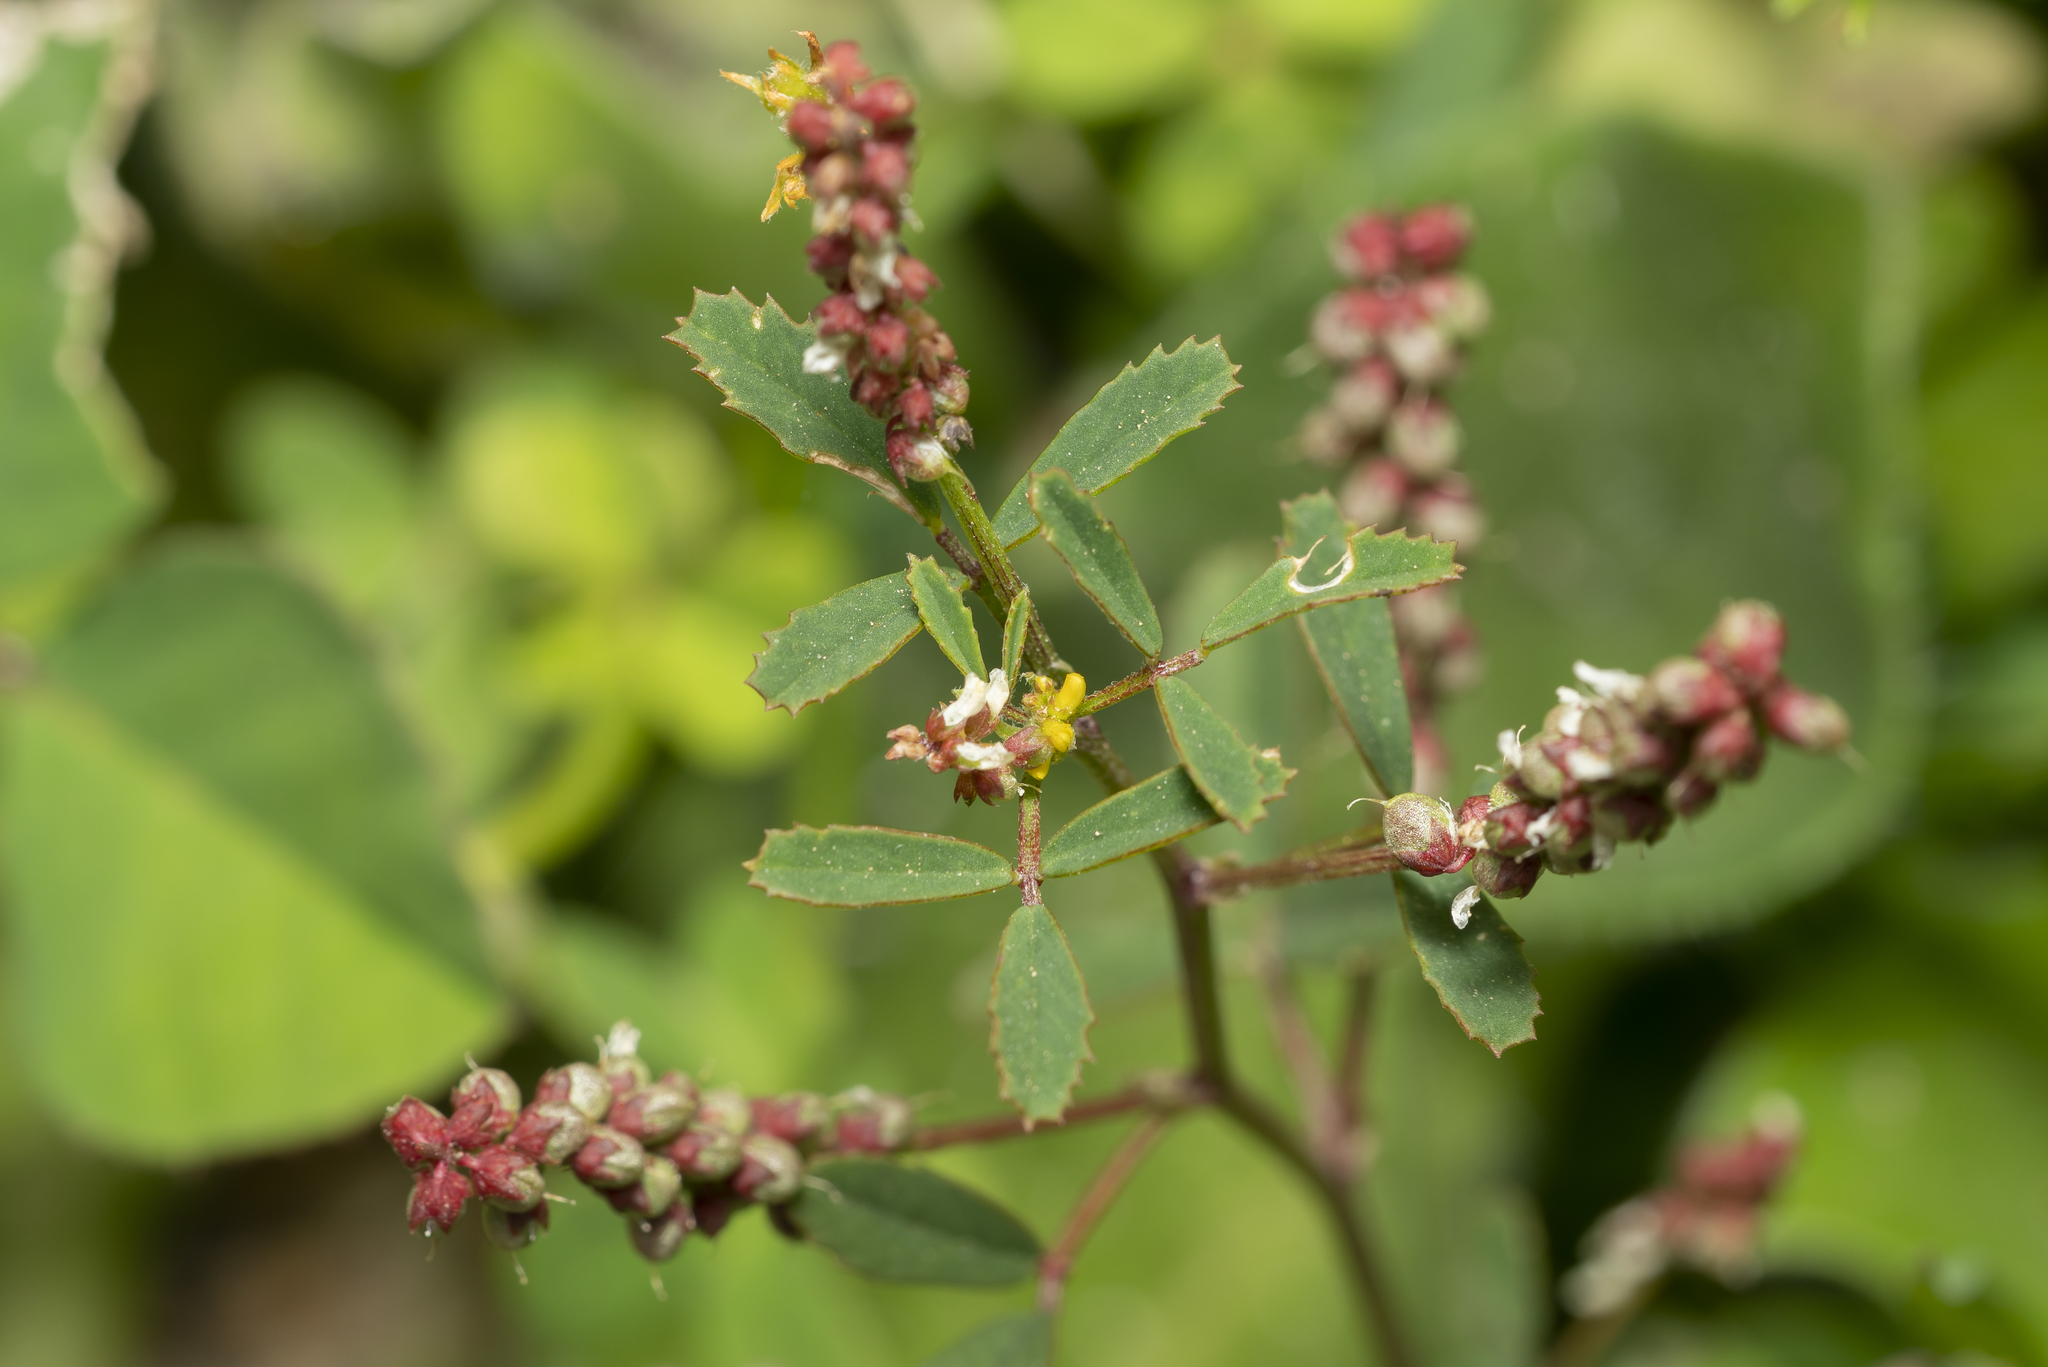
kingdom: Plantae
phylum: Tracheophyta
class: Magnoliopsida
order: Fabales
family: Fabaceae
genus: Melilotus
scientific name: Melilotus indicus
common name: Small melilot
